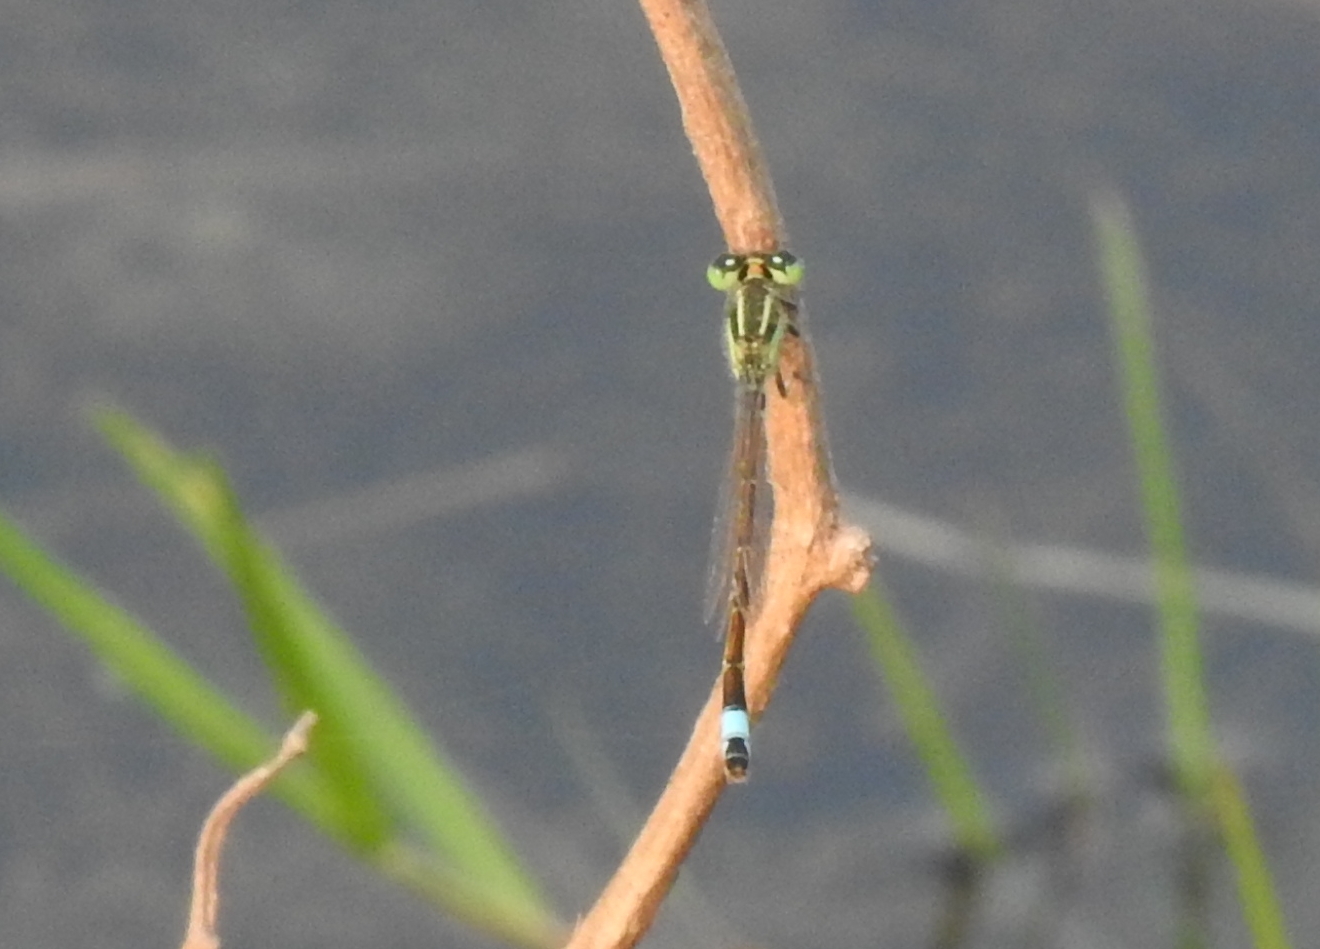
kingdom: Animalia
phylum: Arthropoda
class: Insecta
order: Odonata
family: Coenagrionidae
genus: Ischnura
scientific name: Ischnura senegalensis
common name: Tropical bluetail
